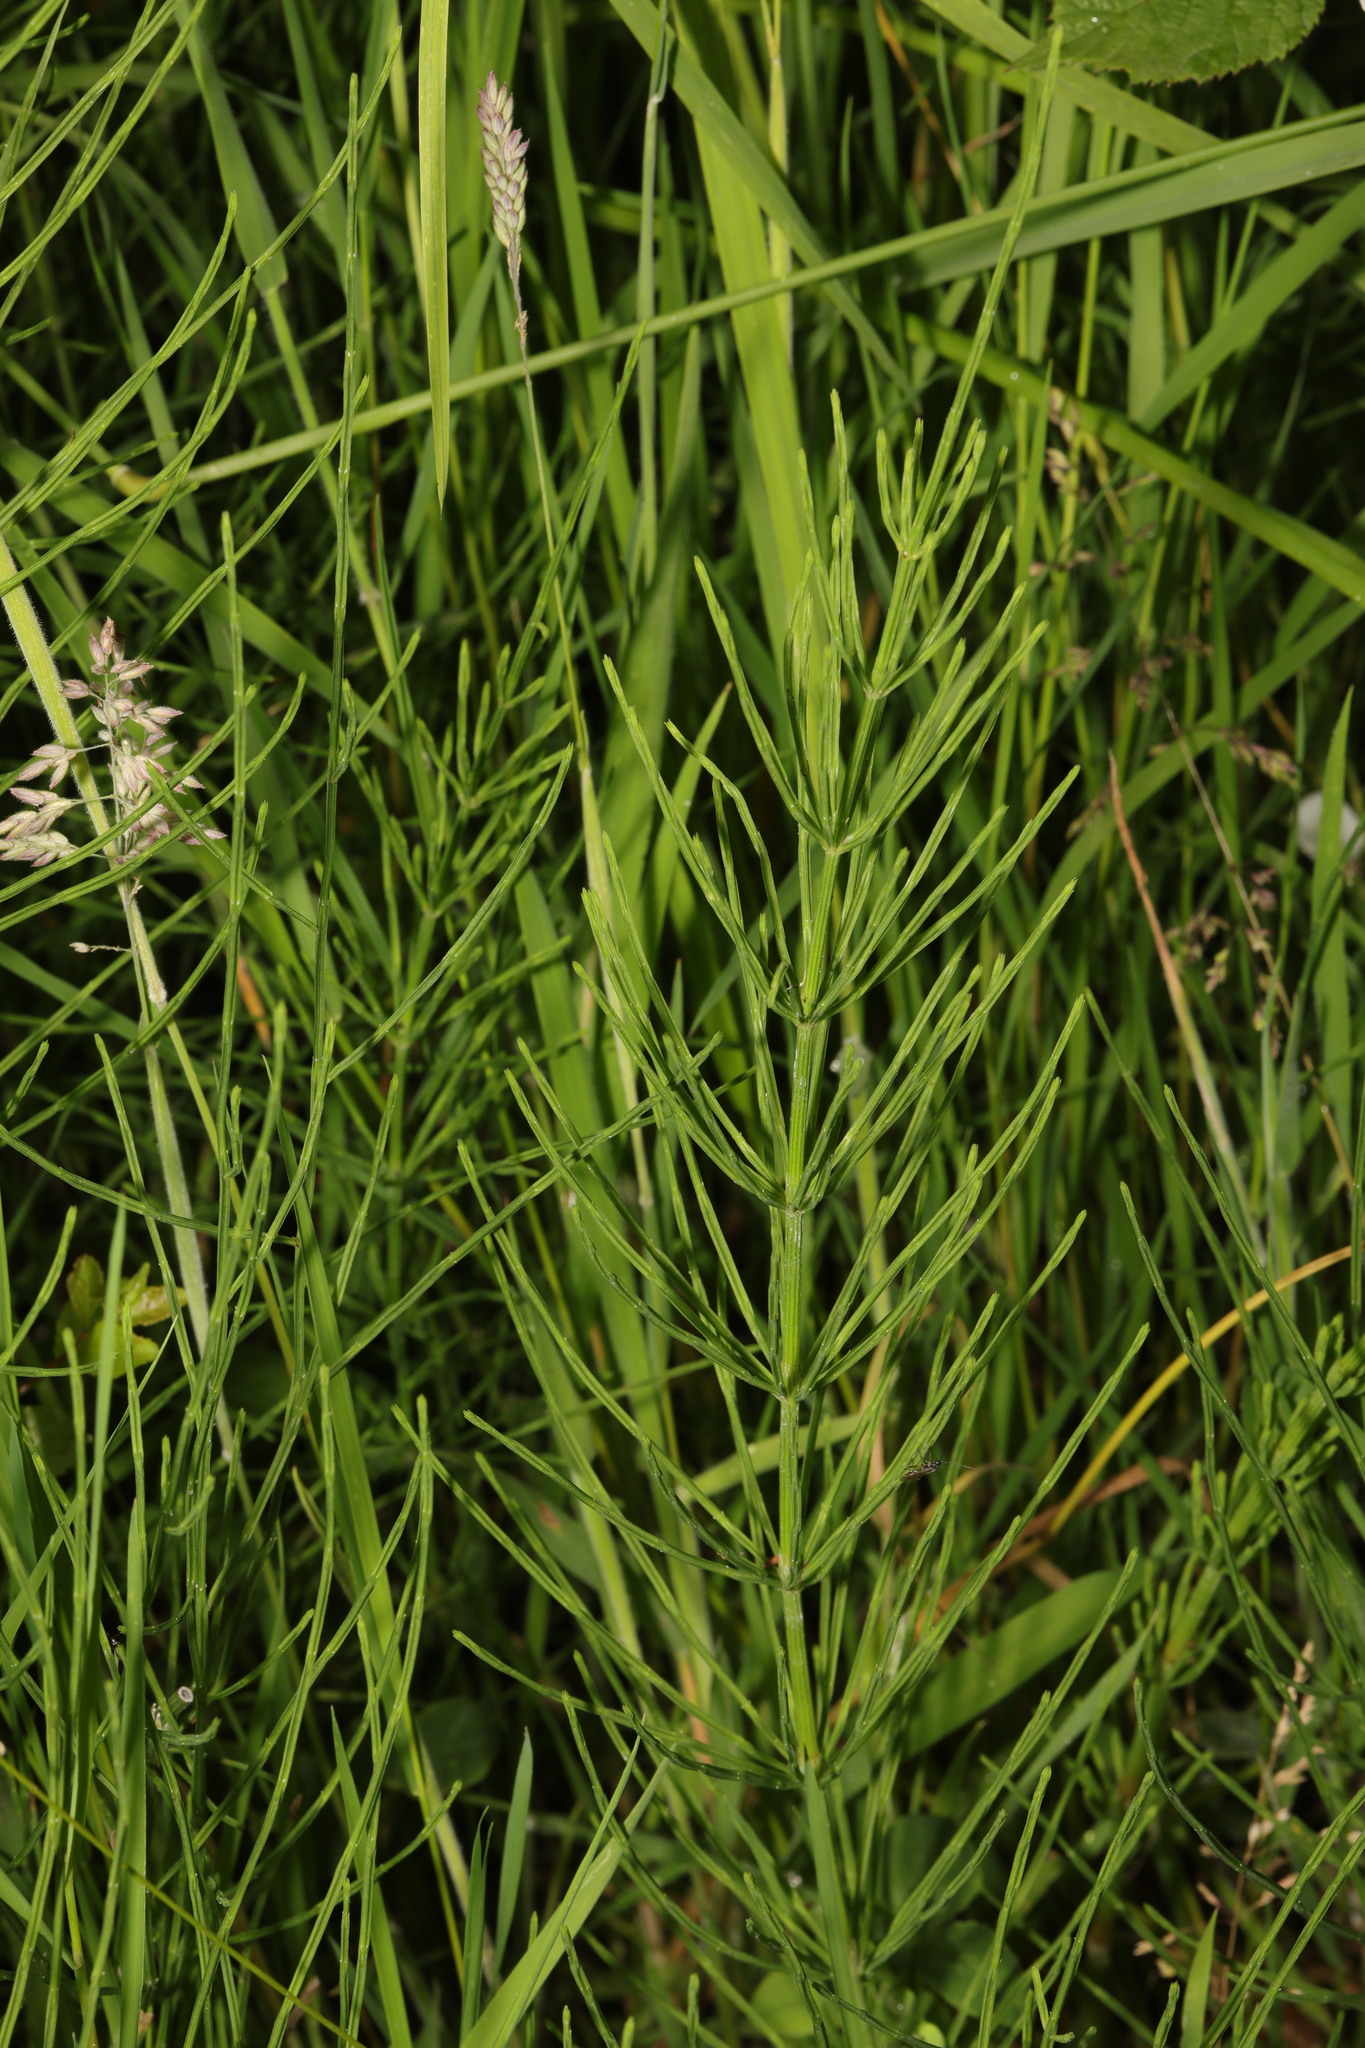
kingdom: Plantae
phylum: Tracheophyta
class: Polypodiopsida
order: Equisetales
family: Equisetaceae
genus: Equisetum
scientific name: Equisetum arvense
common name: Field horsetail
